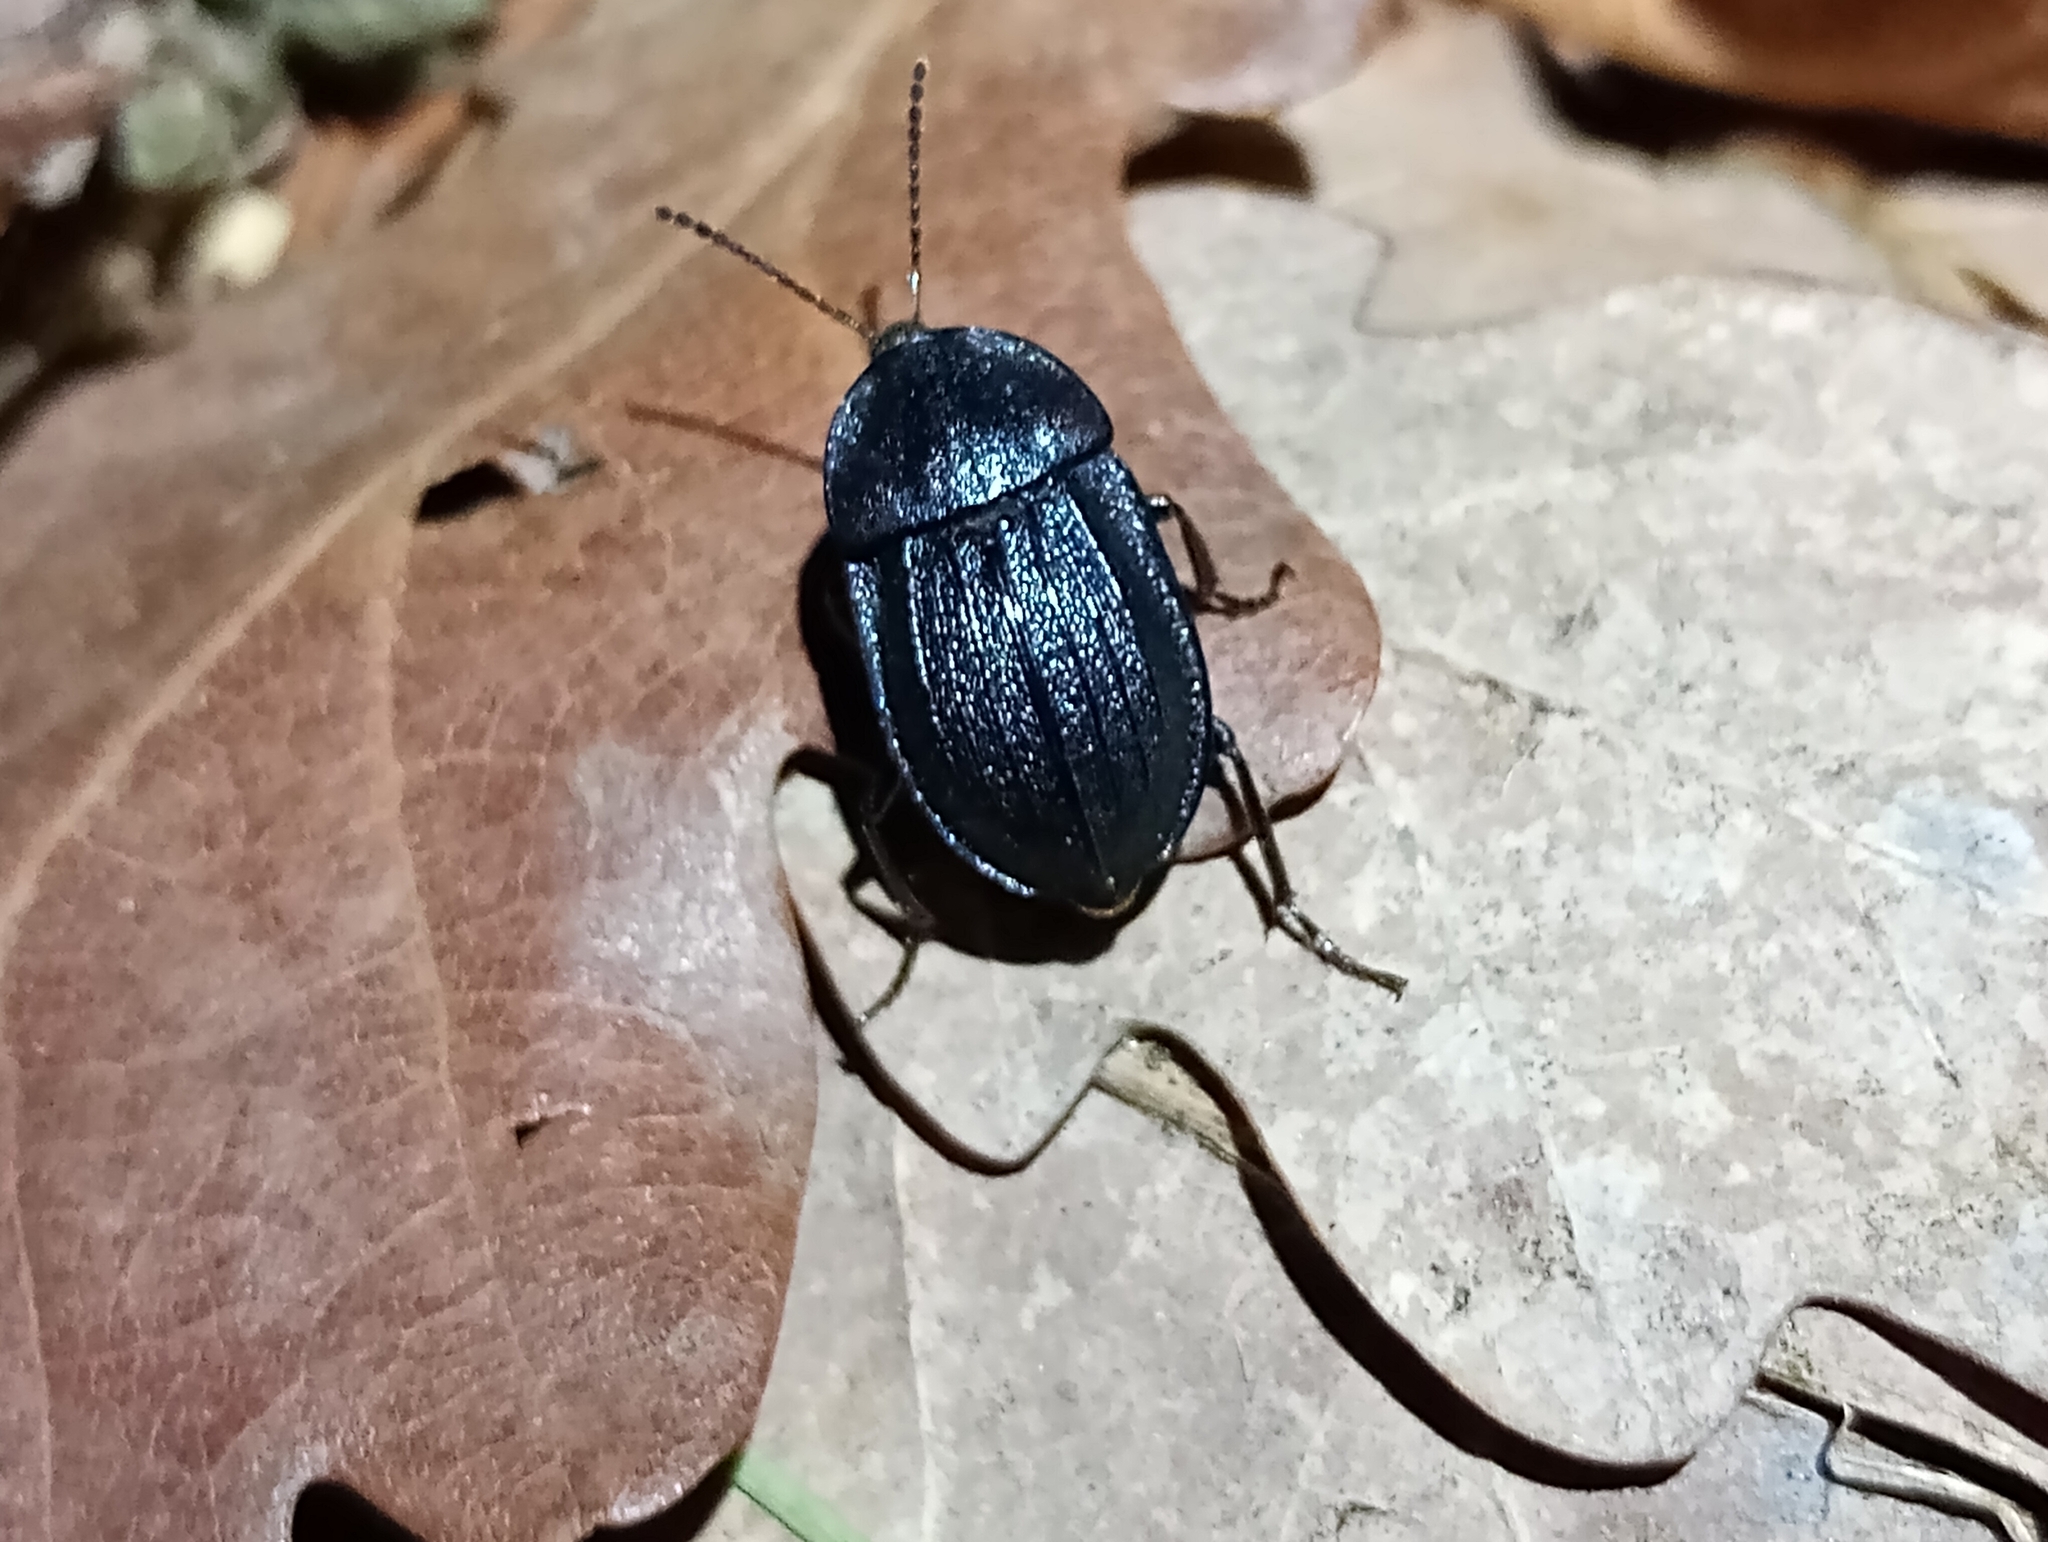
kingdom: Animalia
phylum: Arthropoda
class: Insecta
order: Coleoptera
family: Staphylinidae
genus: Silpha
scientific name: Silpha atrata
